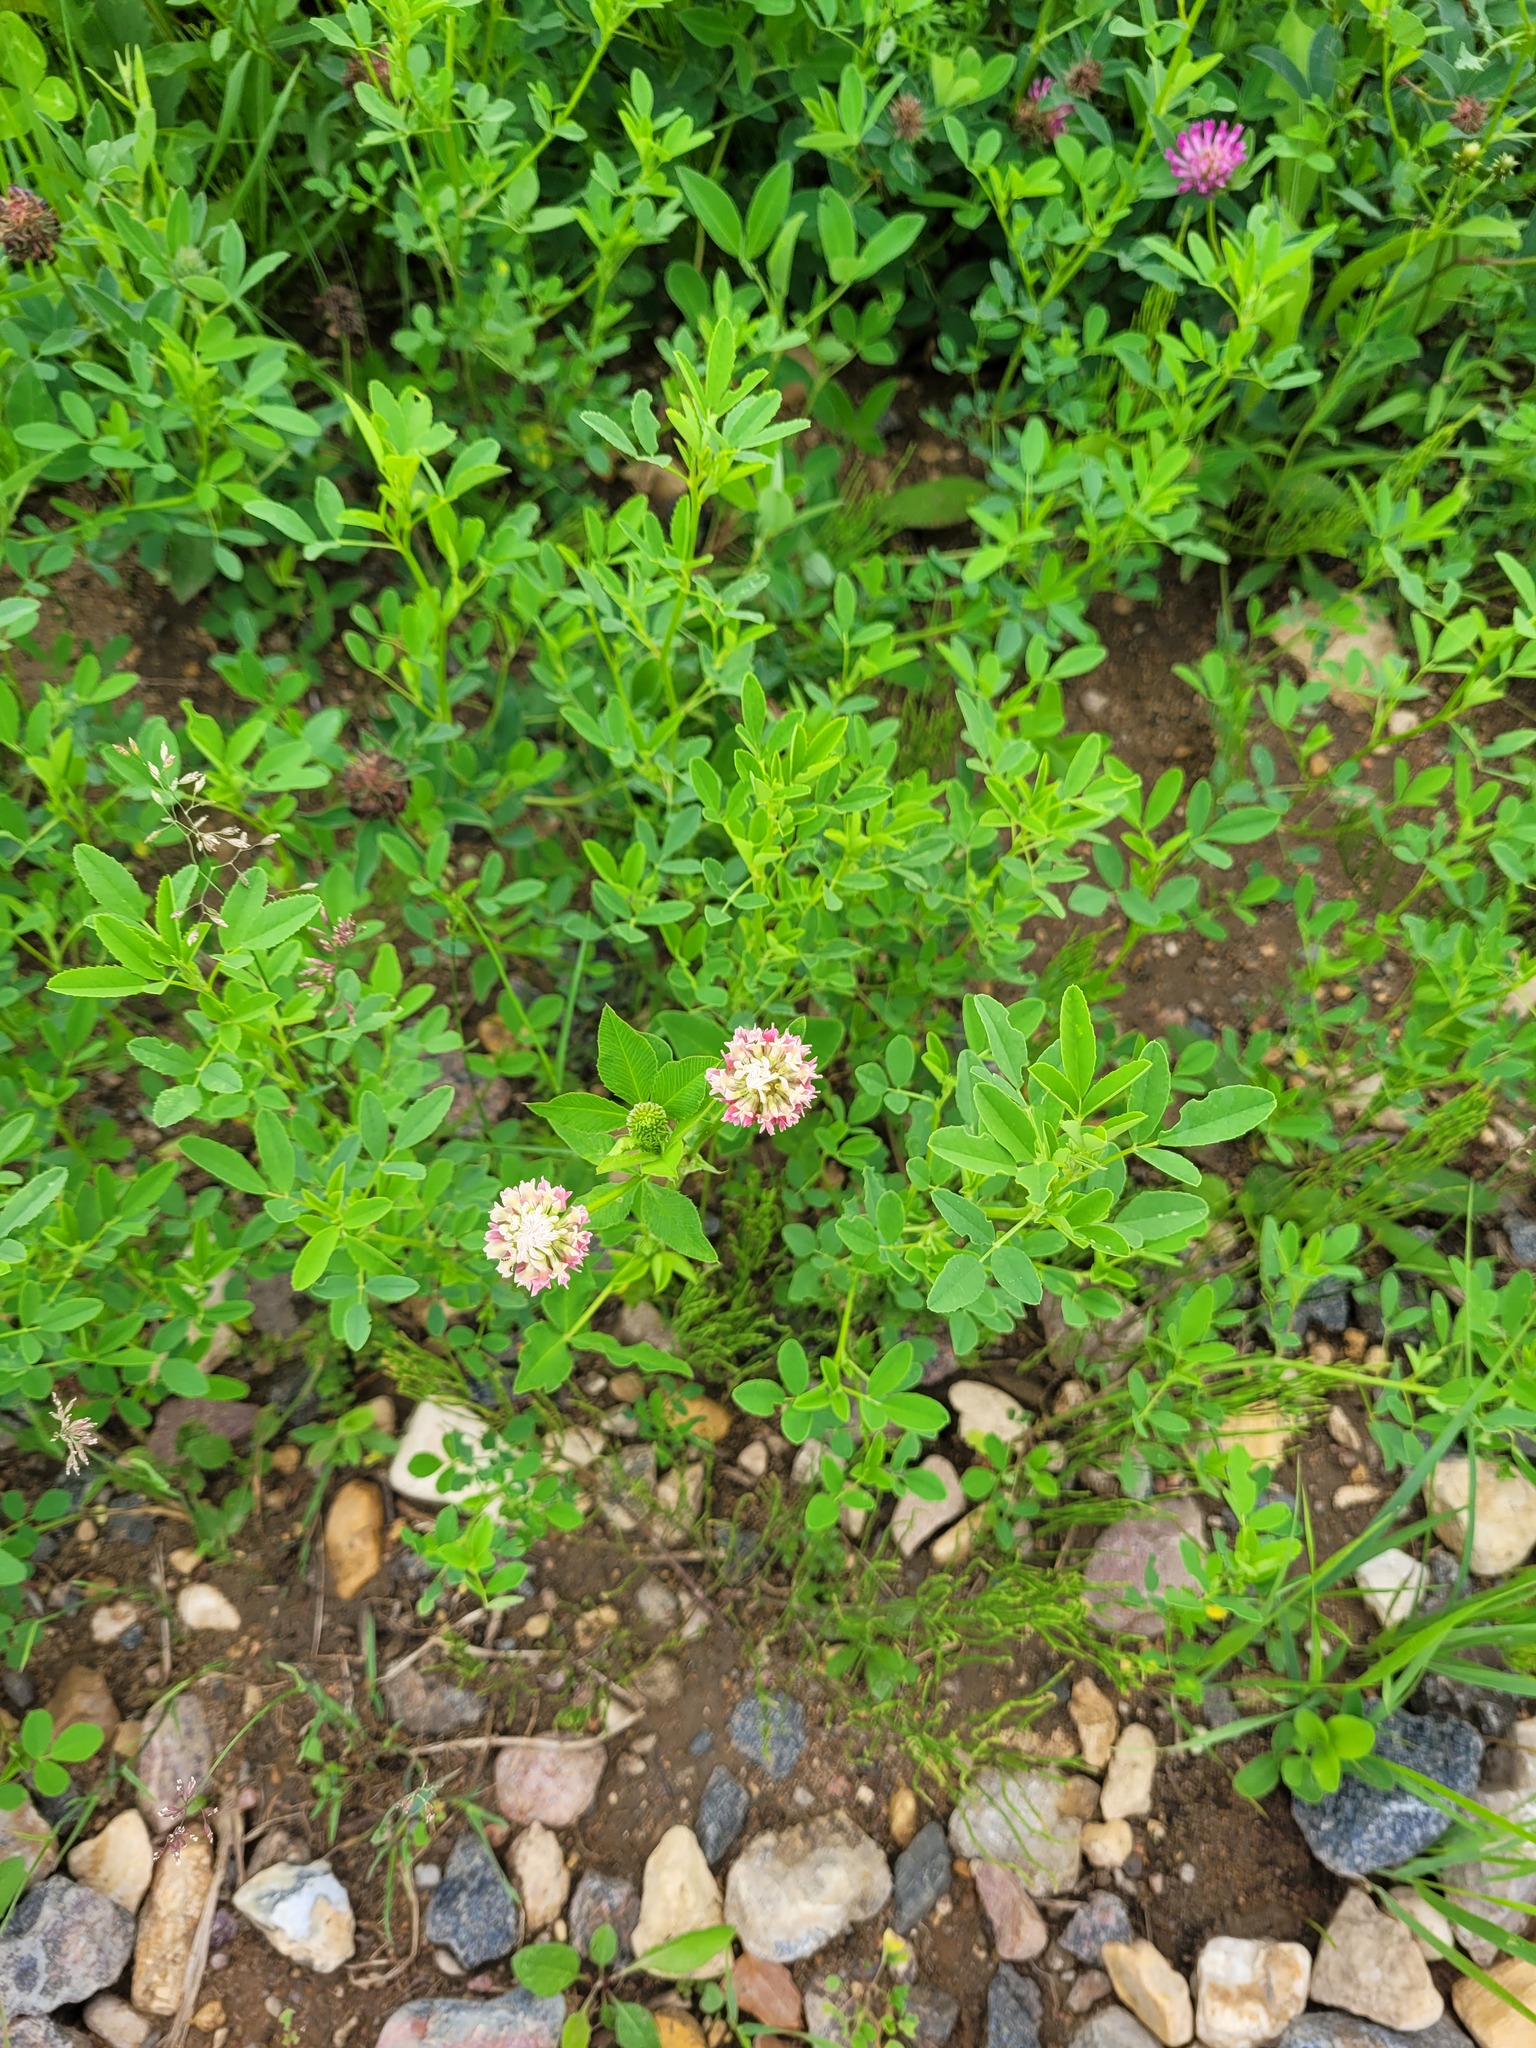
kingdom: Plantae
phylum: Tracheophyta
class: Magnoliopsida
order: Fabales
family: Fabaceae
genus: Trifolium
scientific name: Trifolium hybridum
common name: Alsike clover
